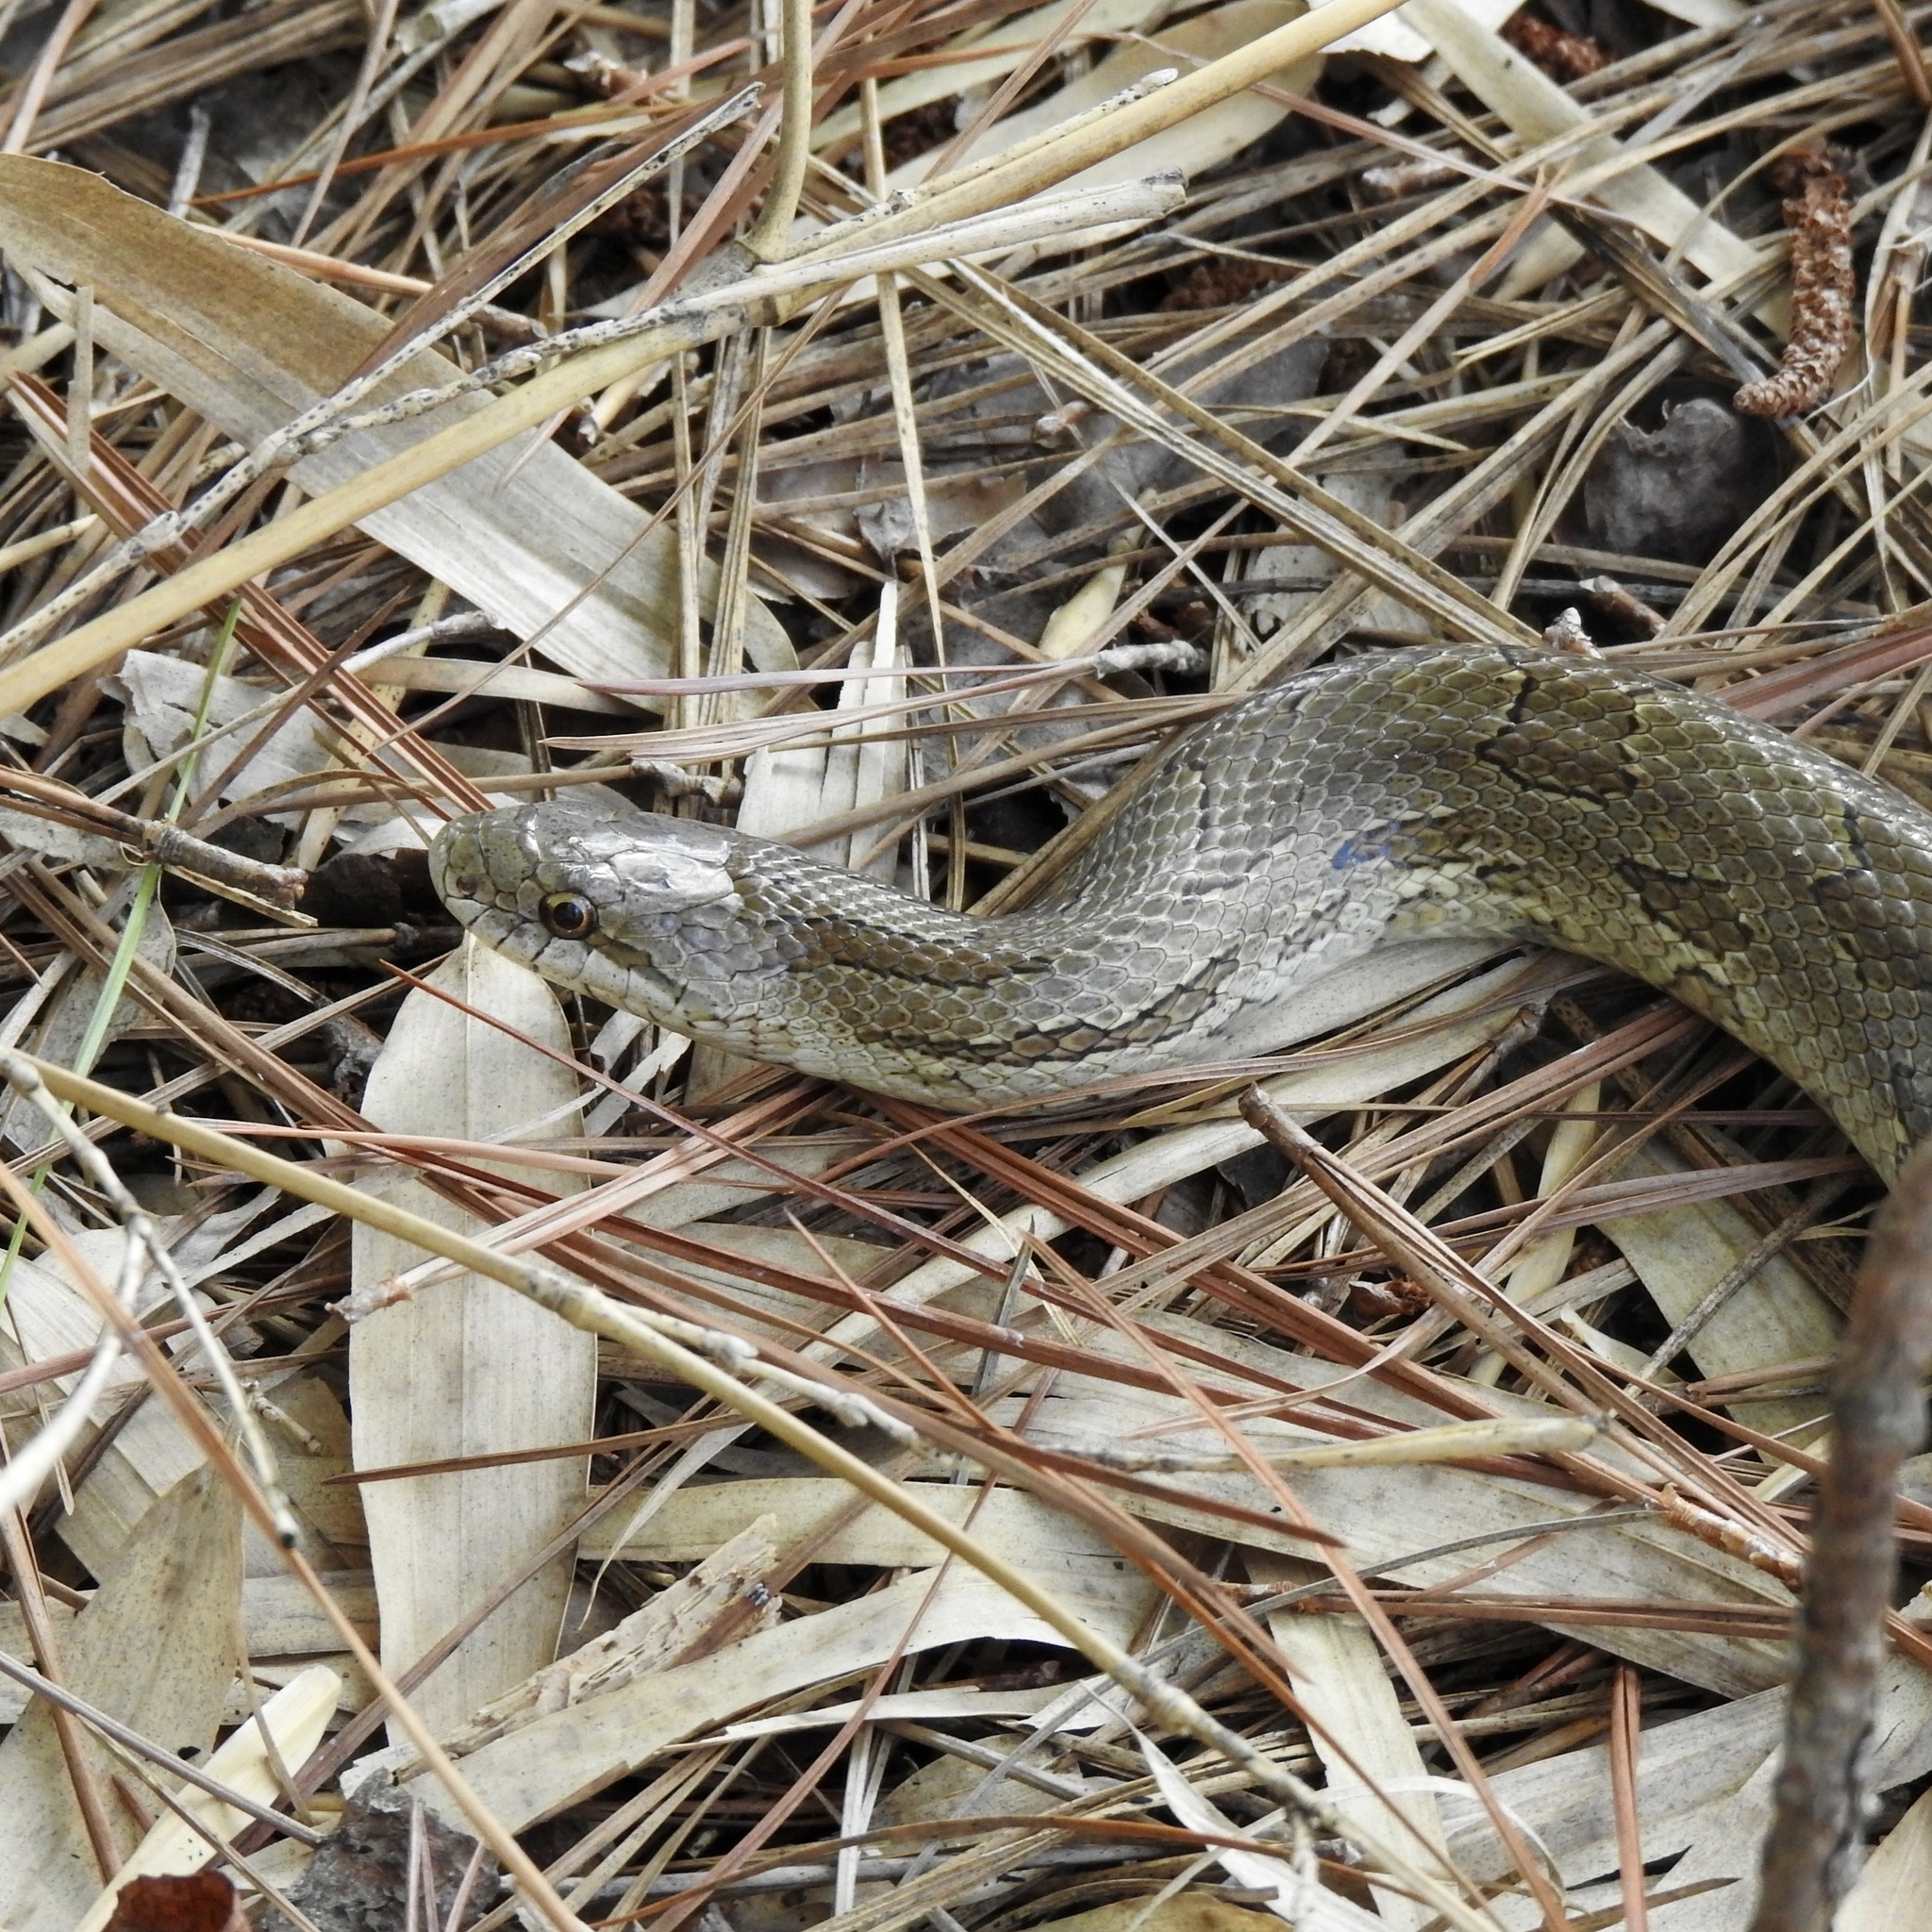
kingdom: Animalia
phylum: Chordata
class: Squamata
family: Colubridae
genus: Lampropeltis
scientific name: Lampropeltis calligaster
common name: Prairie kingsnake
